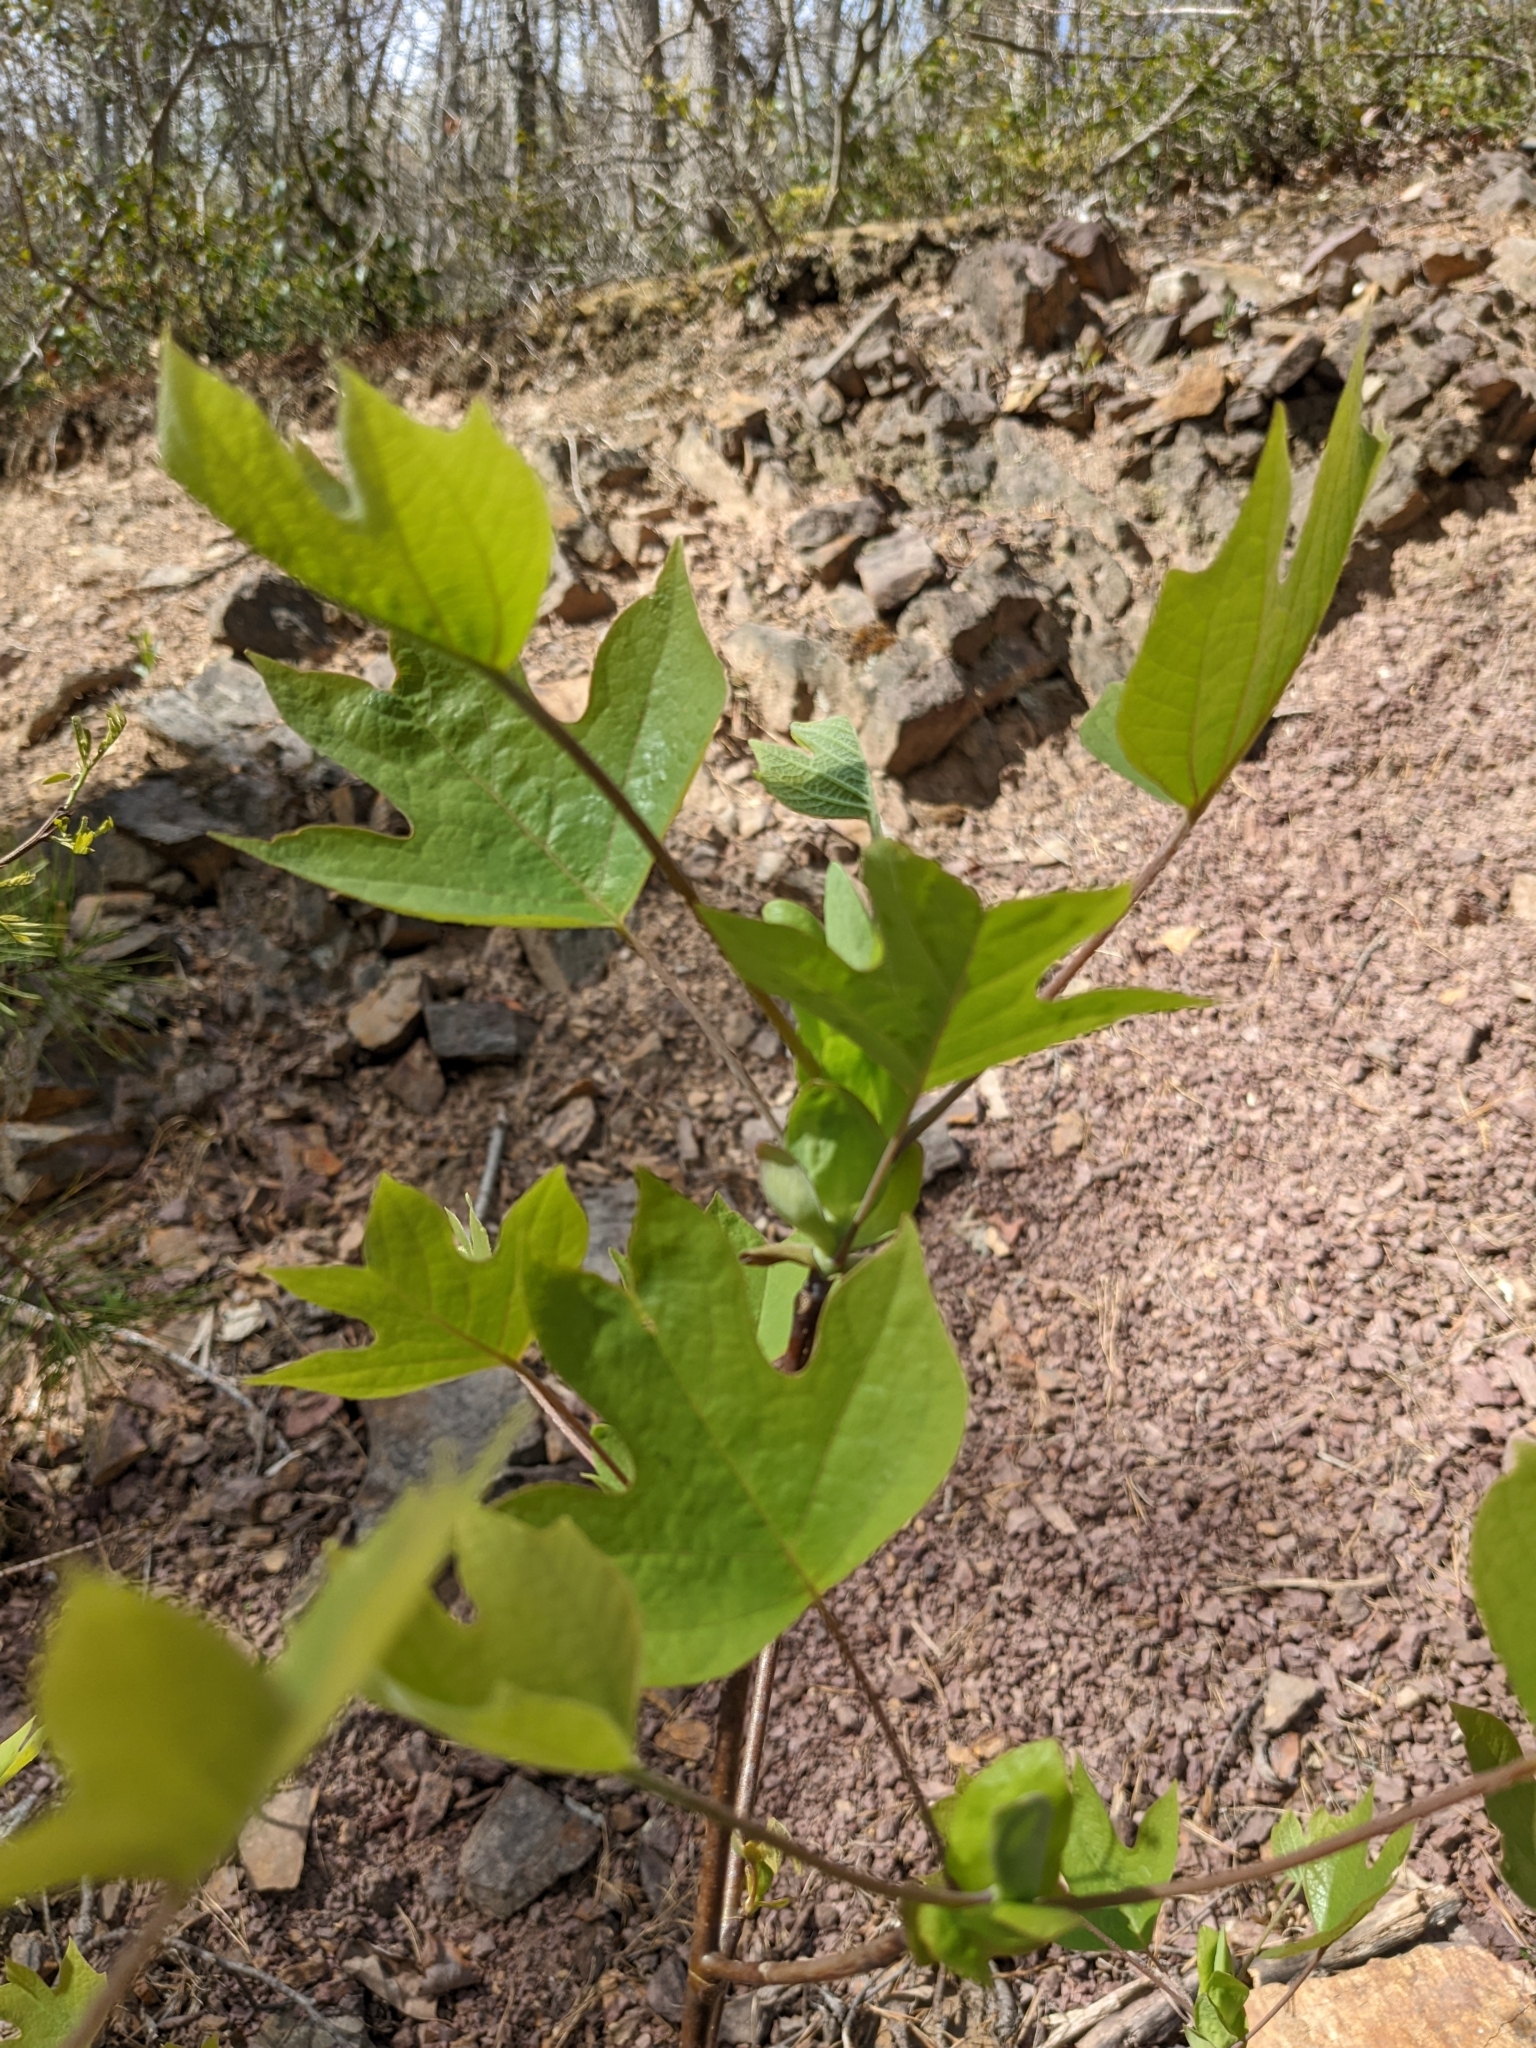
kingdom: Plantae
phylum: Tracheophyta
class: Magnoliopsida
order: Magnoliales
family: Magnoliaceae
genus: Liriodendron
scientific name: Liriodendron tulipifera
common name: Tulip tree
